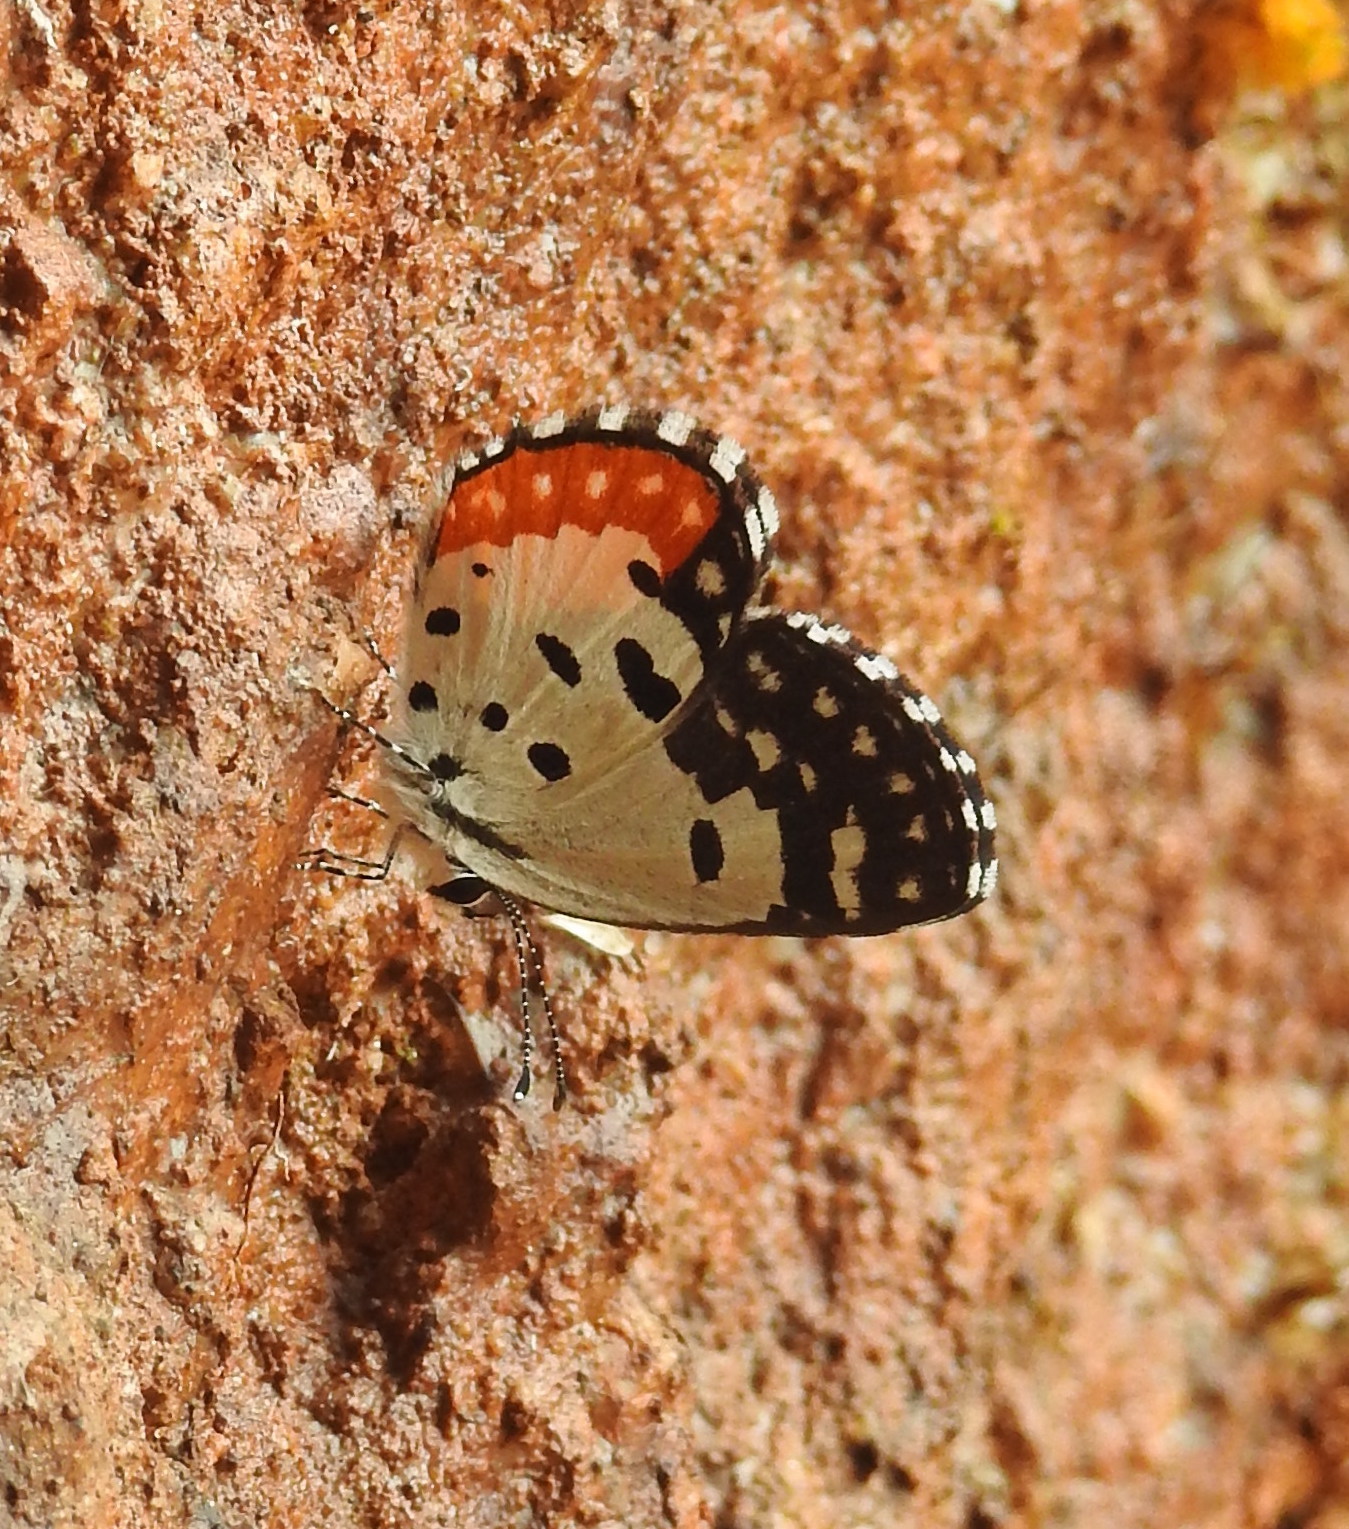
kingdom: Animalia
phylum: Arthropoda
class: Insecta
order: Lepidoptera
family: Lycaenidae
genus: Talicada
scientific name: Talicada nyseus
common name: Red pierrot
